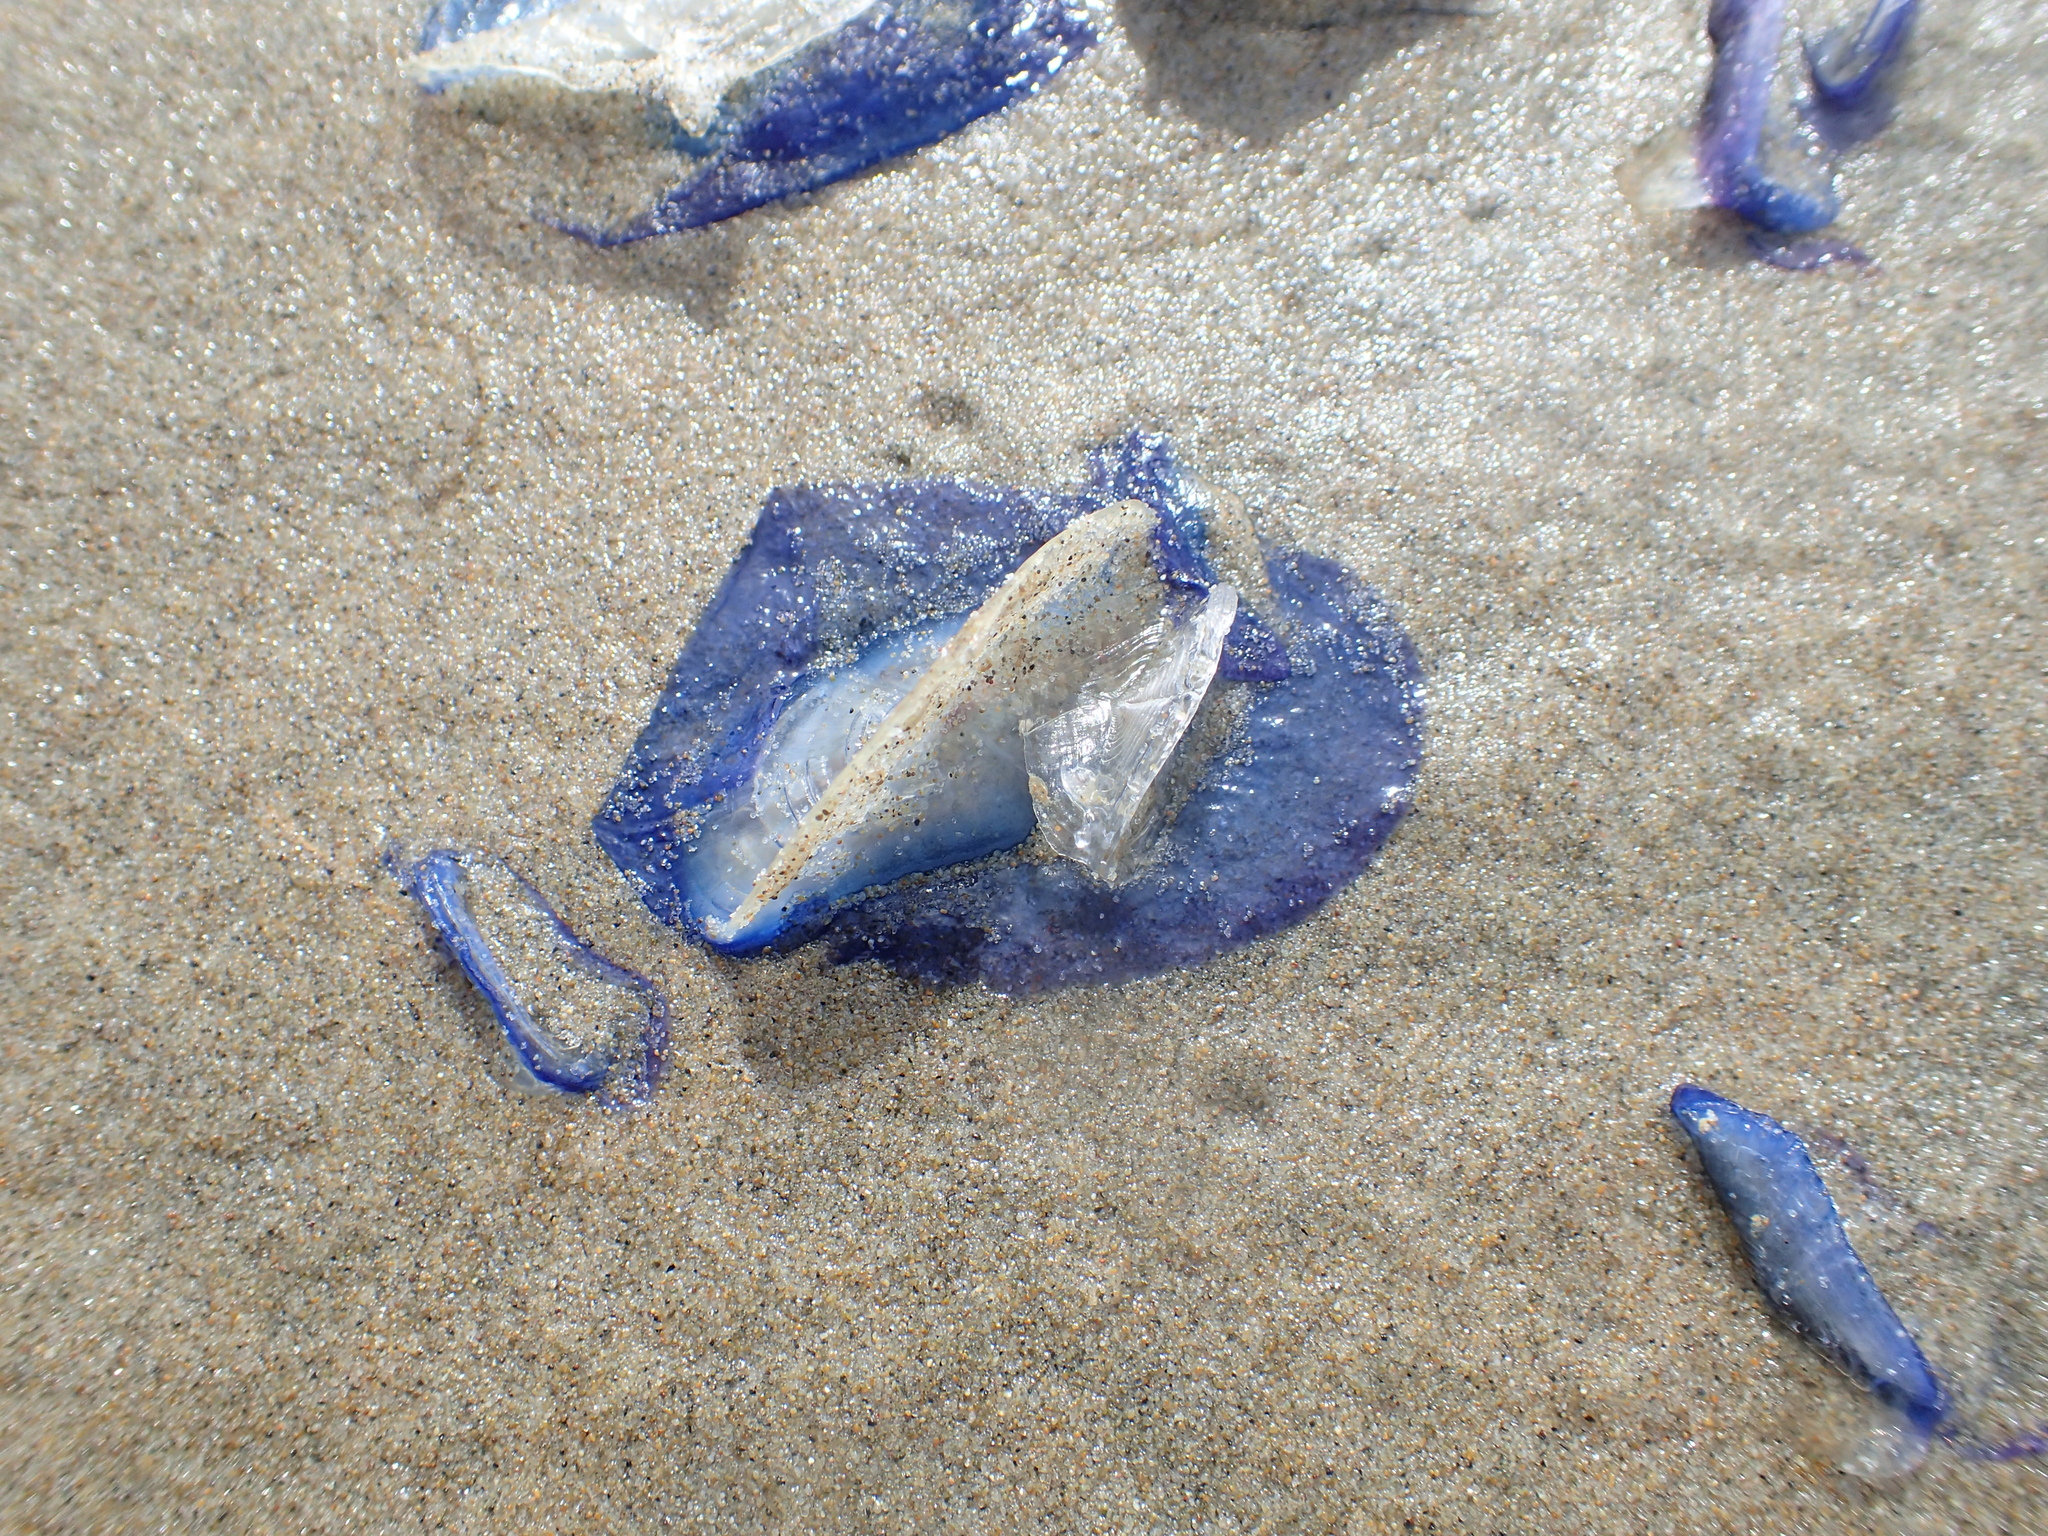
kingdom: Animalia
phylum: Cnidaria
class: Hydrozoa
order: Anthoathecata
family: Porpitidae
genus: Velella
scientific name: Velella velella
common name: By-the-wind-sailor
